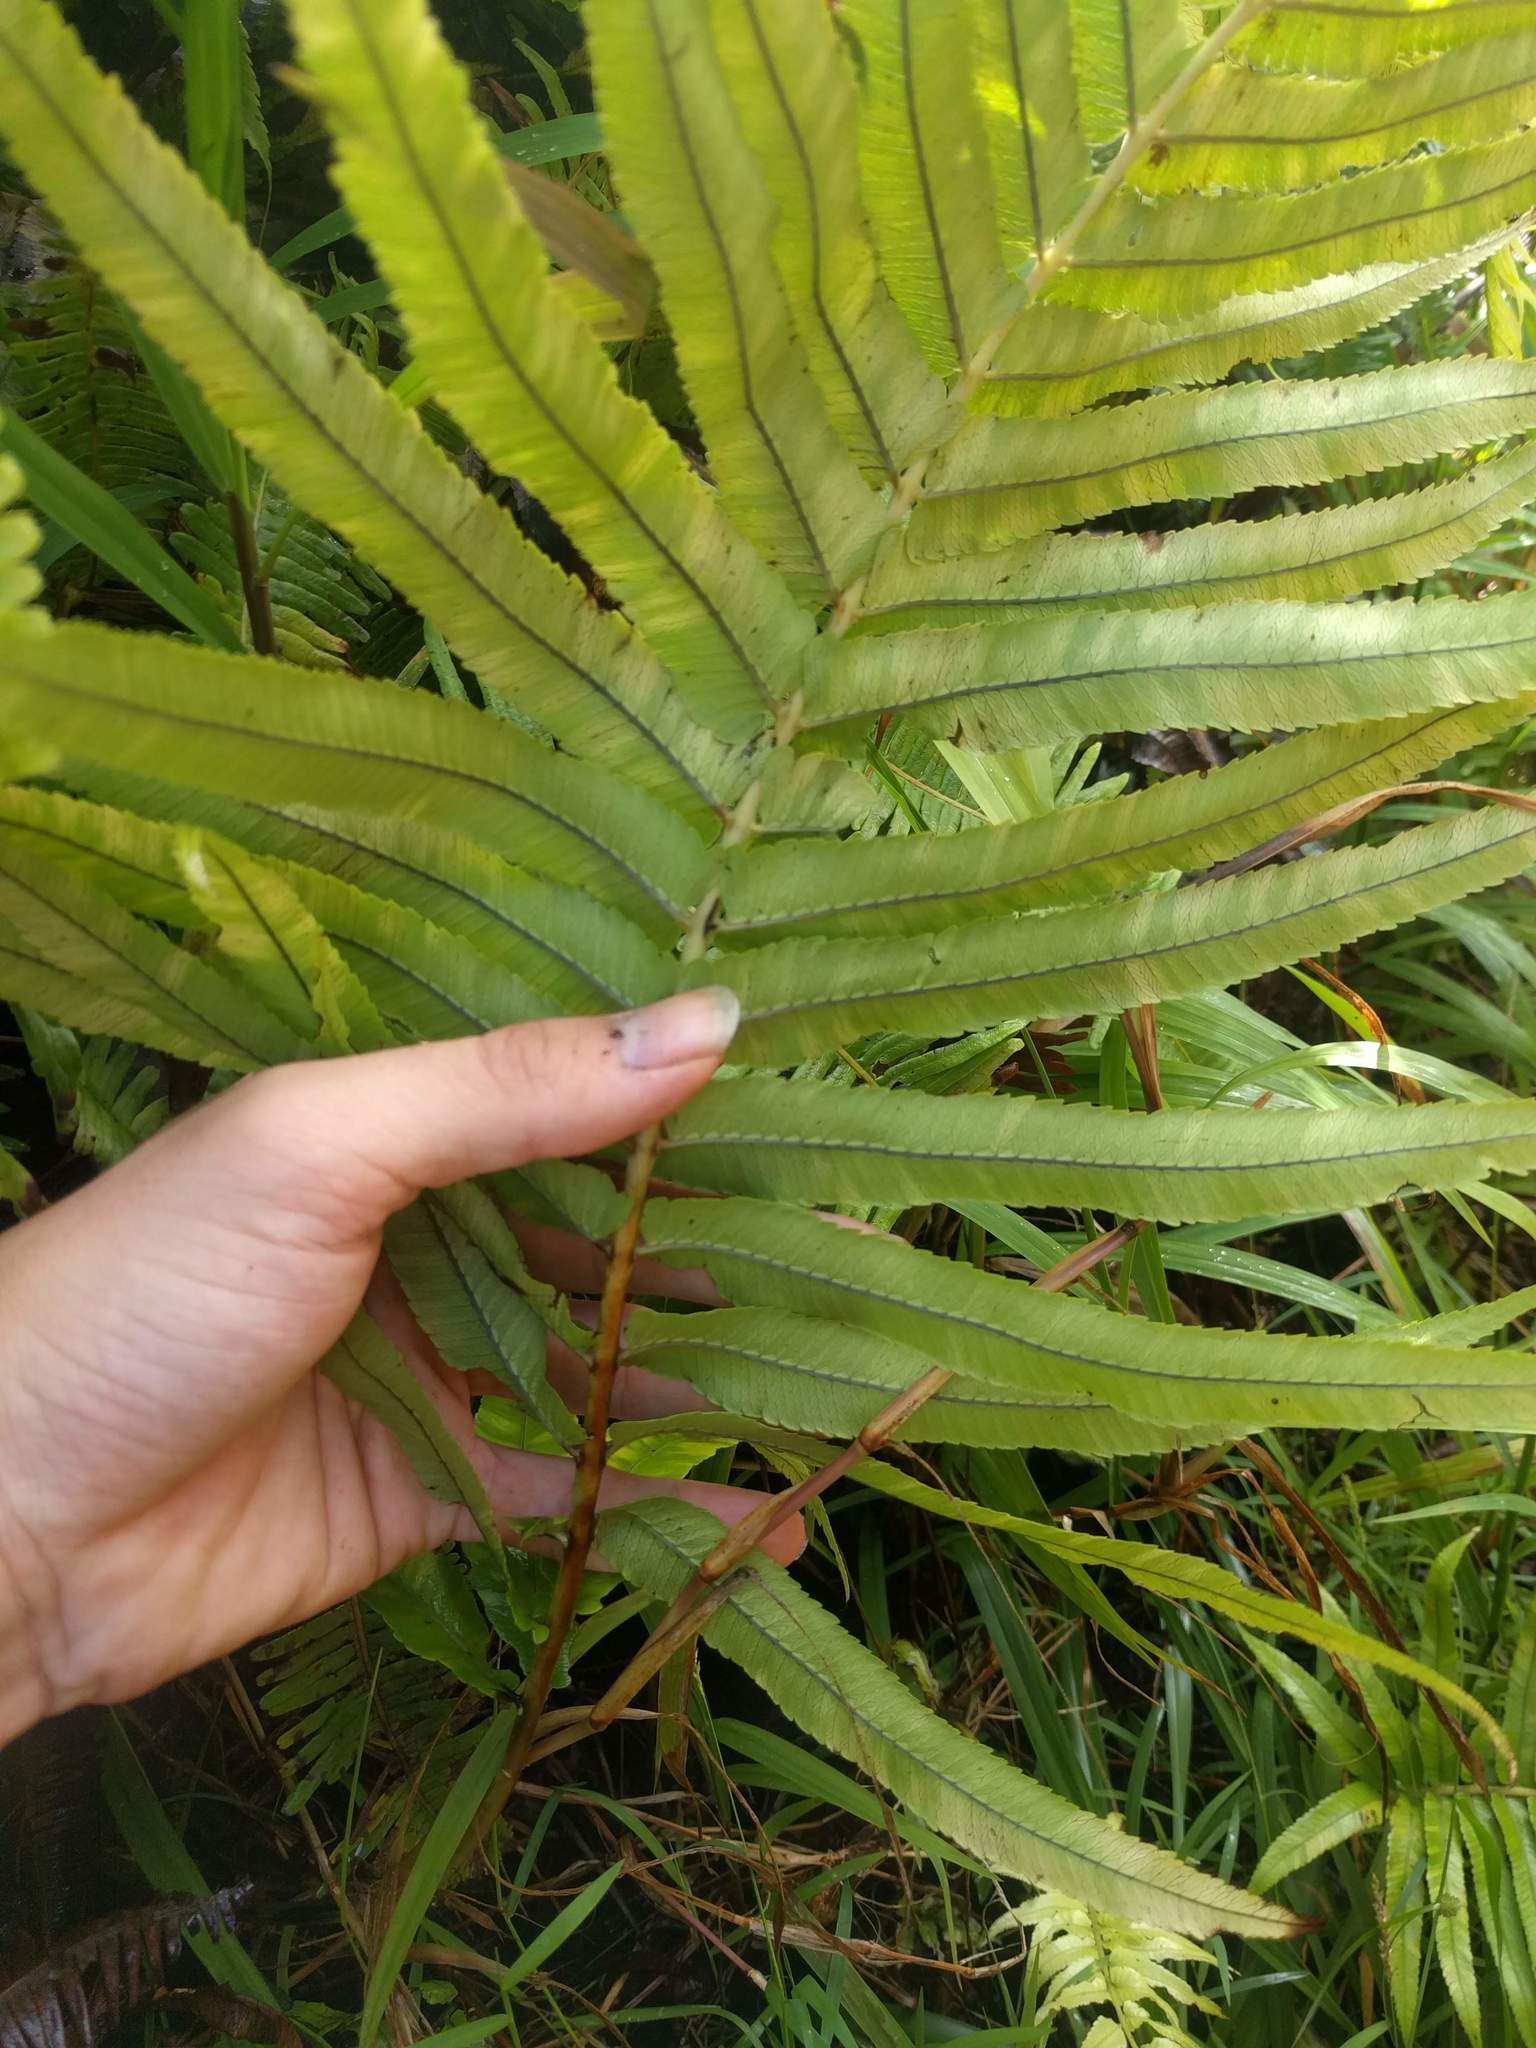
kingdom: Plantae
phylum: Tracheophyta
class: Polypodiopsida
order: Polypodiales
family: Thelypteridaceae
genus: Menisciopsis
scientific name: Menisciopsis cyatheoides
